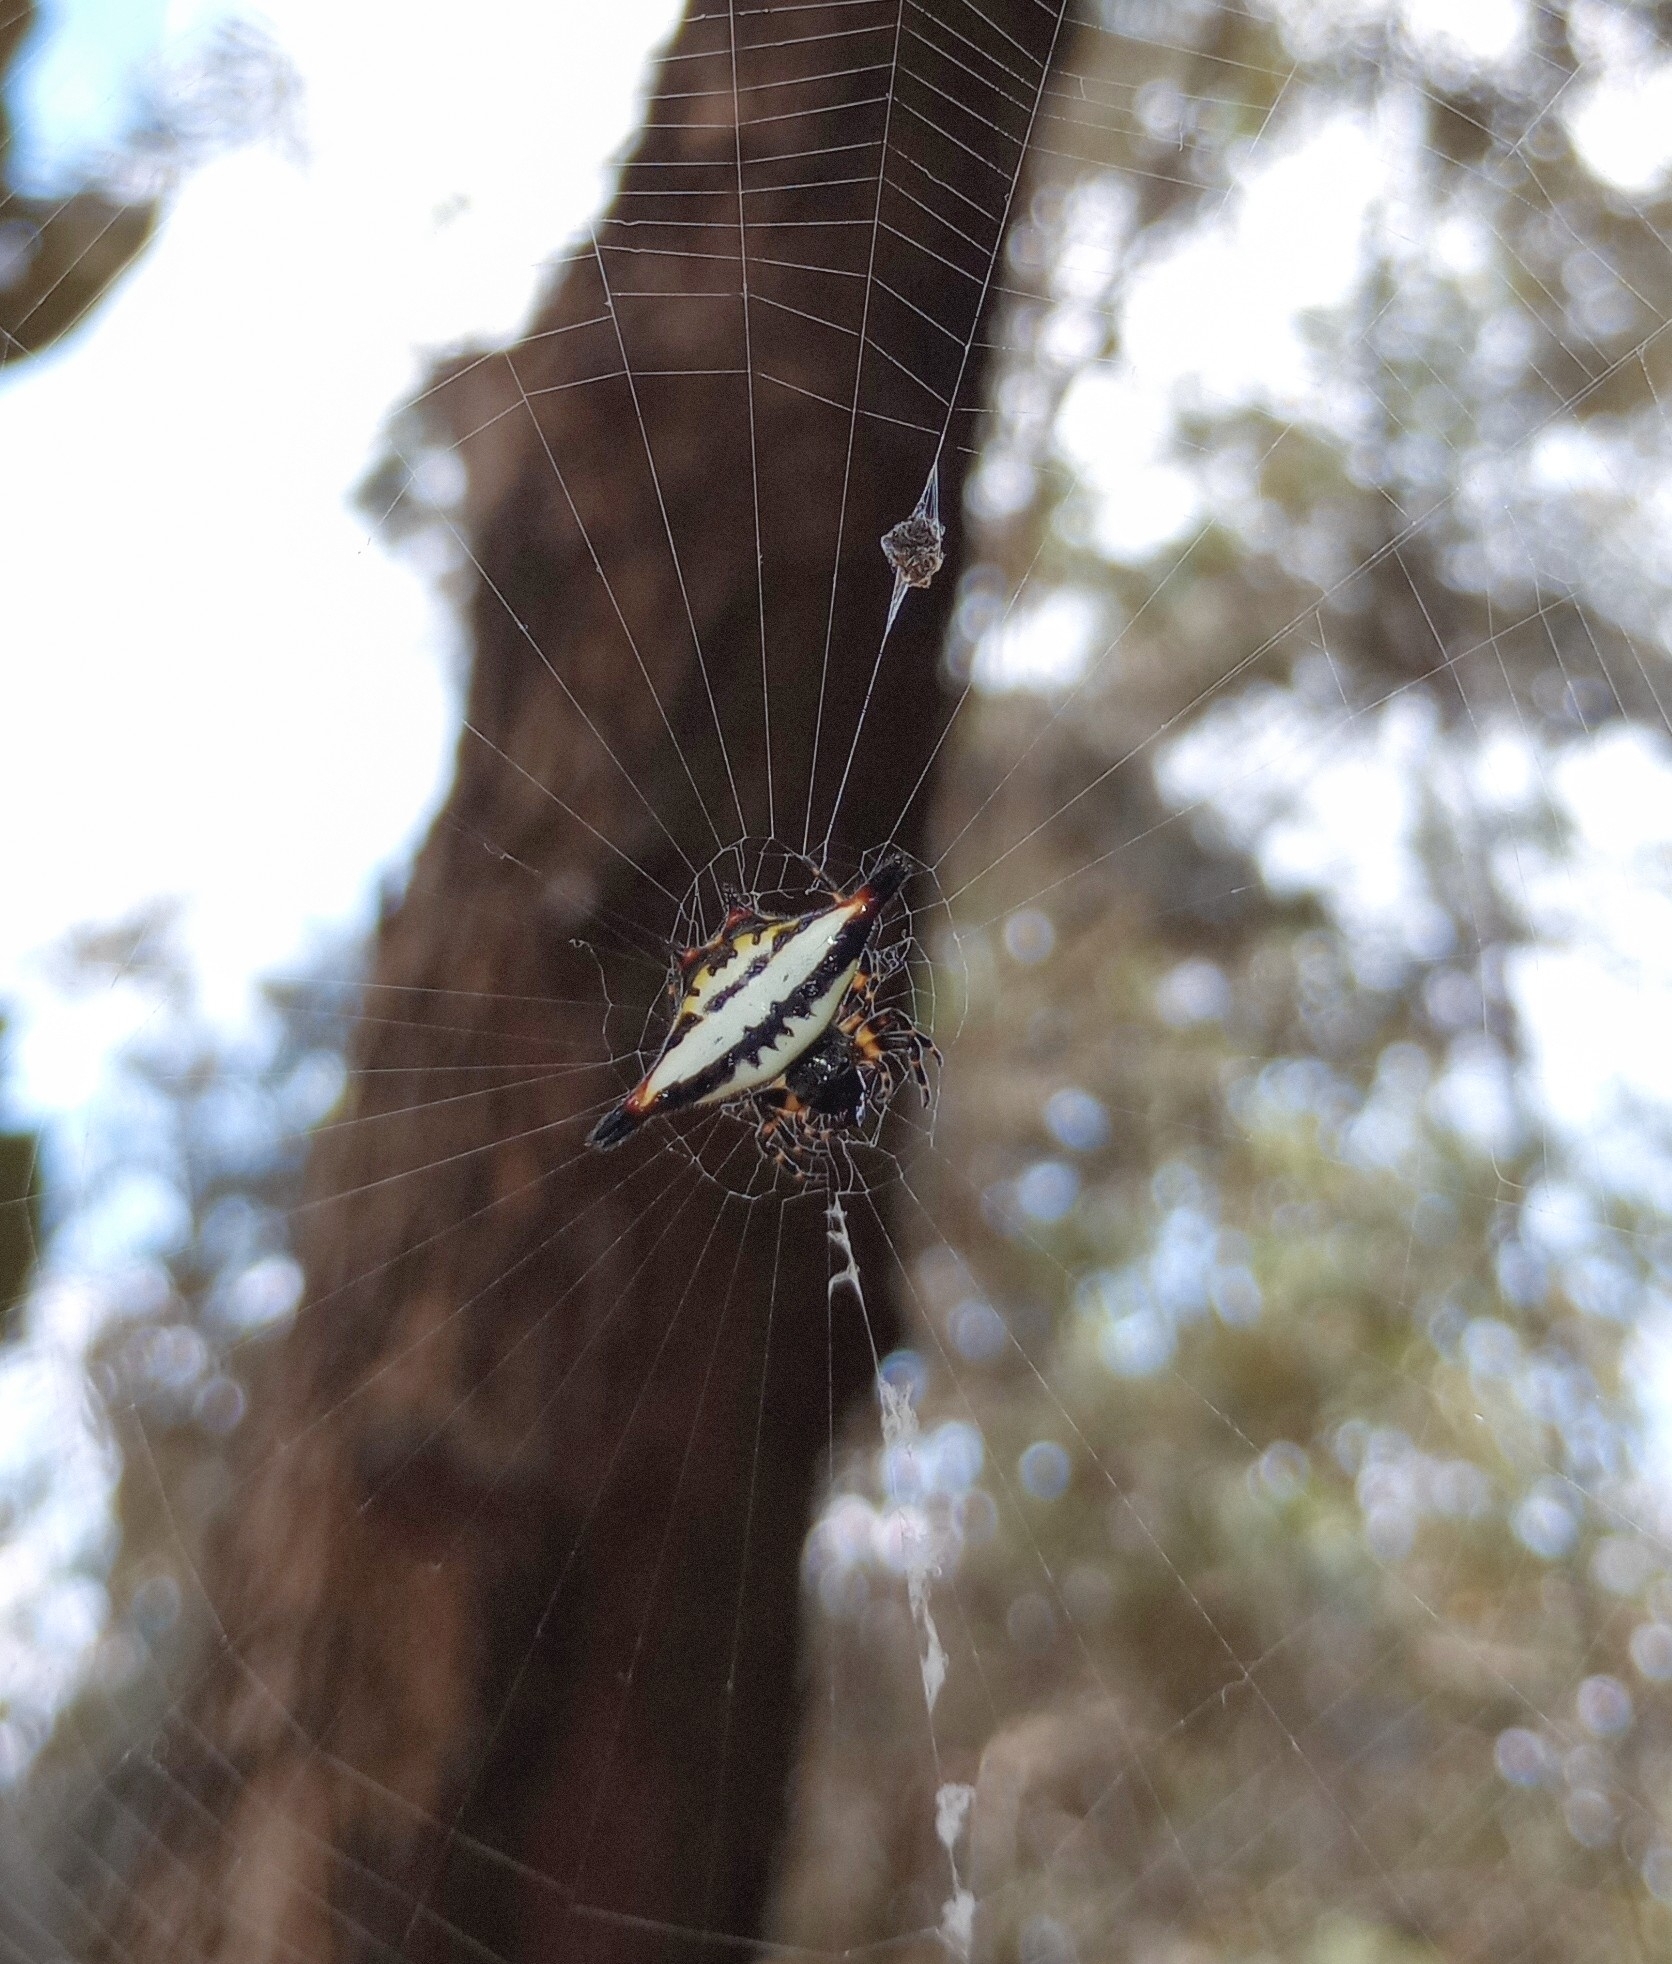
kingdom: Animalia
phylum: Arthropoda
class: Arachnida
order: Araneae
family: Araneidae
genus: Gasteracantha
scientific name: Gasteracantha geminata
